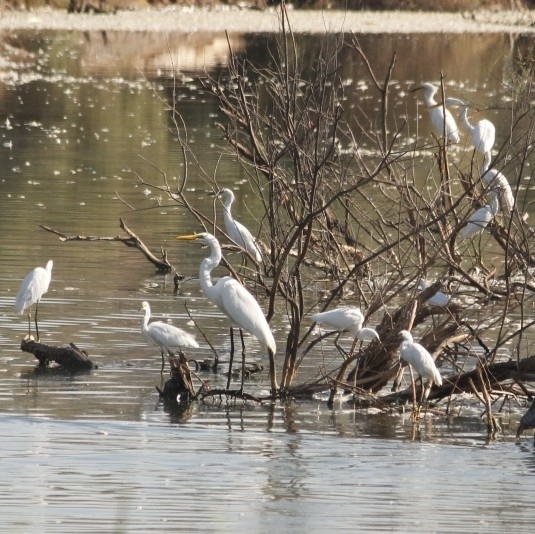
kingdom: Animalia
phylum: Chordata
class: Aves
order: Pelecaniformes
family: Ardeidae
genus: Ardea
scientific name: Ardea alba
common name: Great egret
